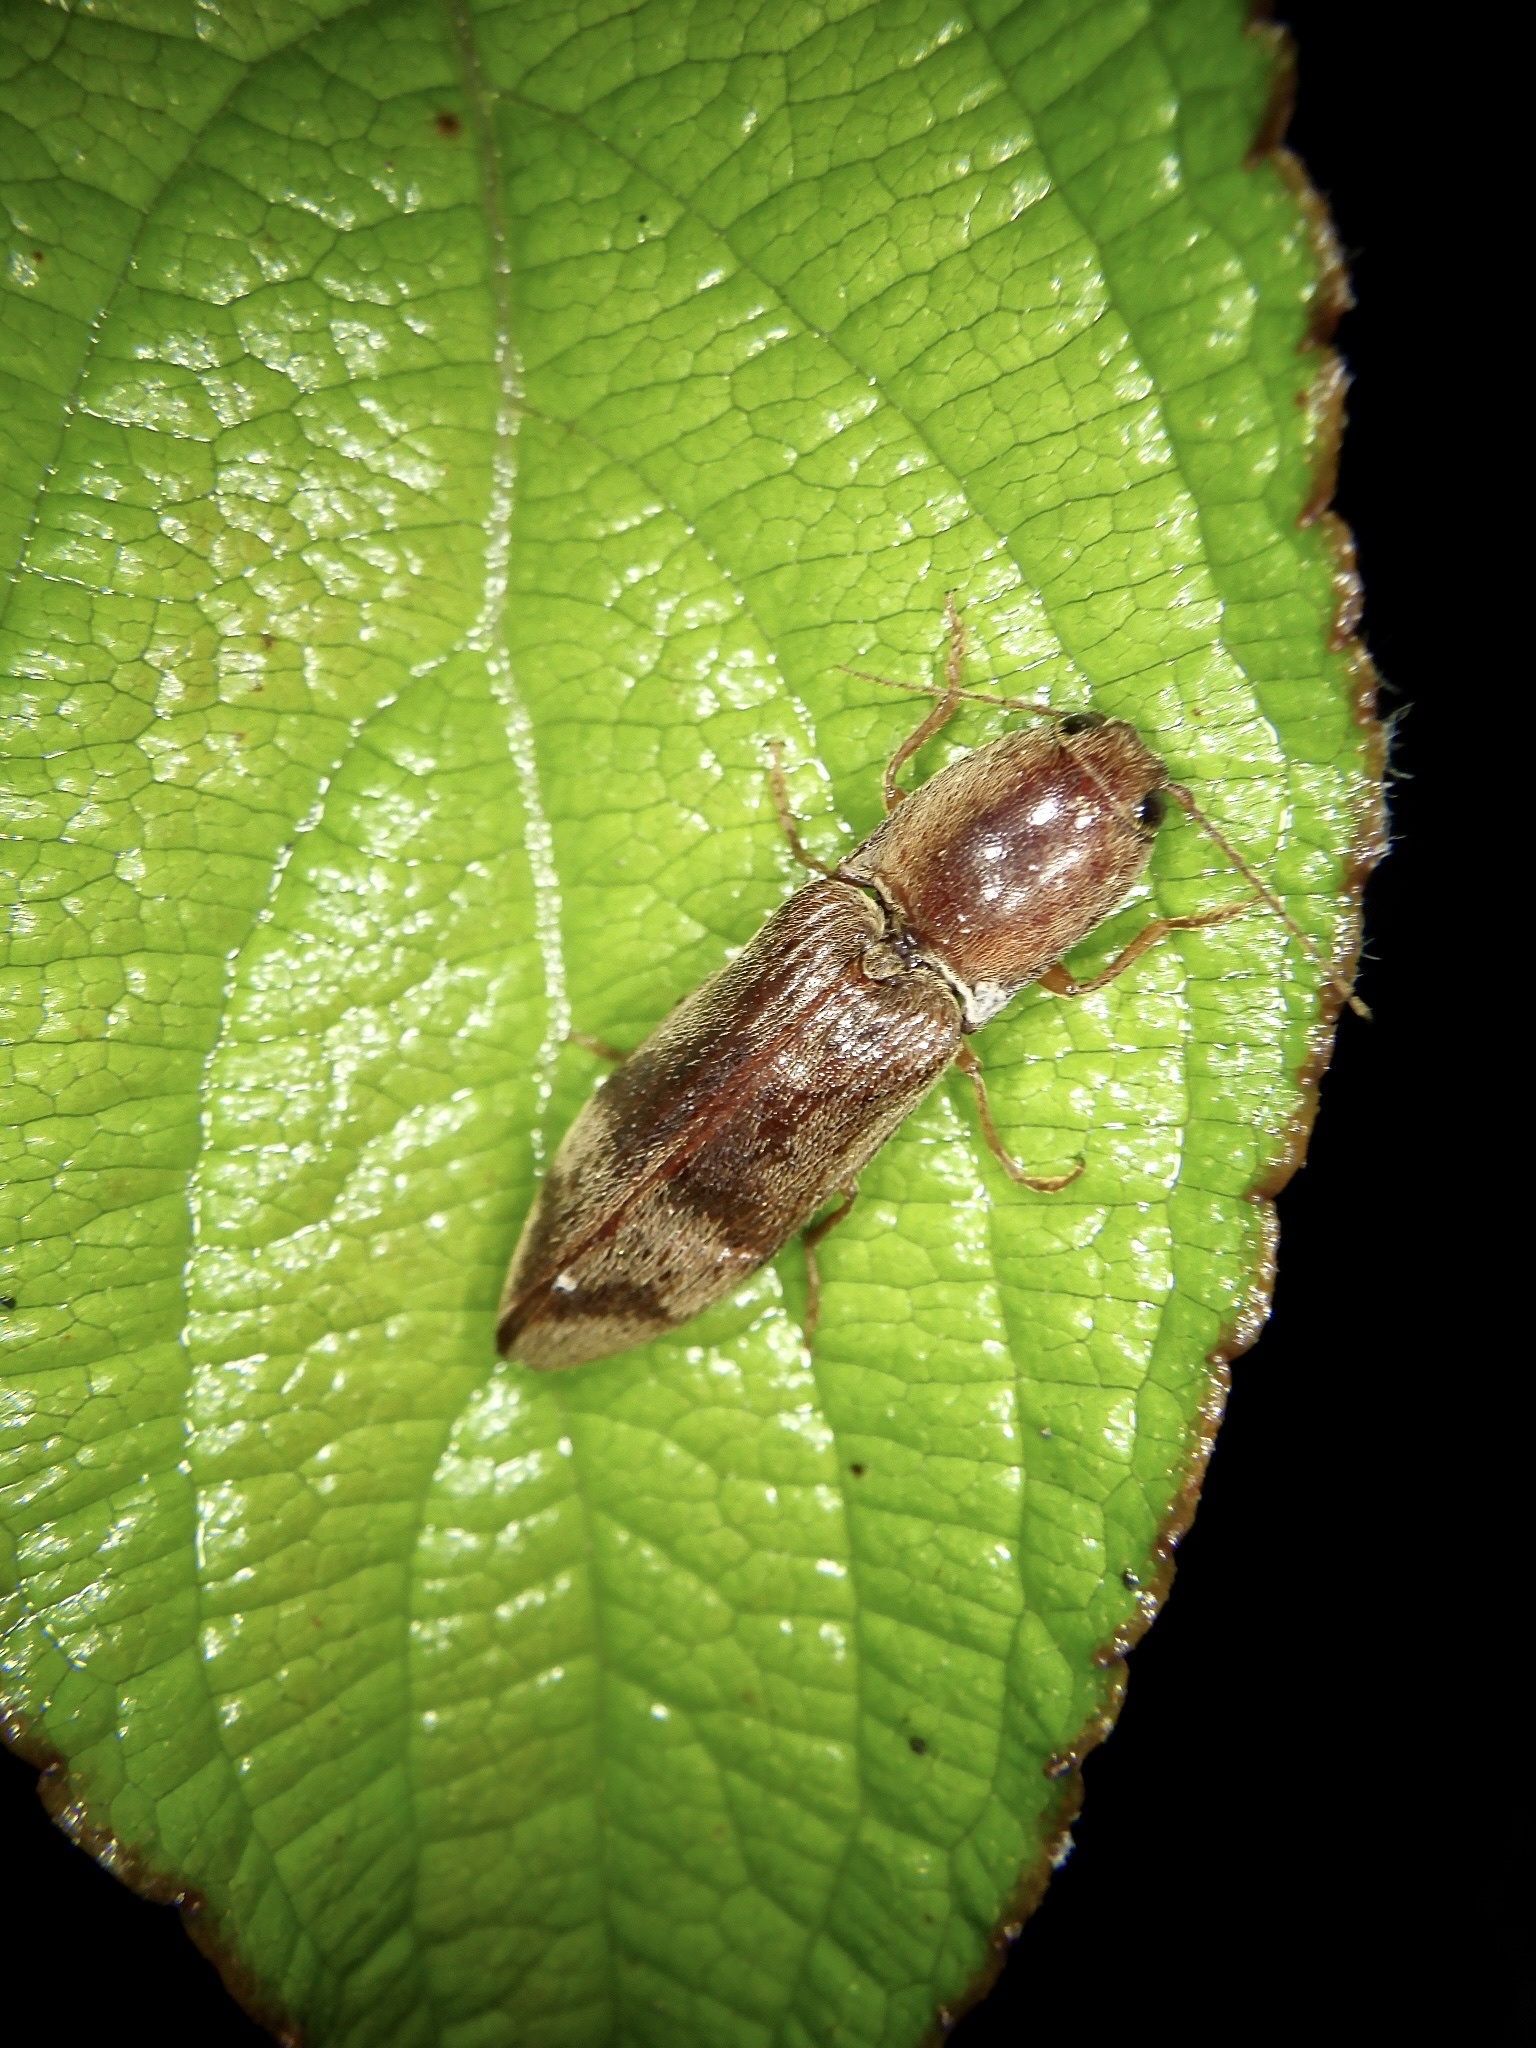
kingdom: Animalia
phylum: Arthropoda
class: Insecta
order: Coleoptera
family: Elateridae
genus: Stenagostus
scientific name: Stenagostus umbratilis
